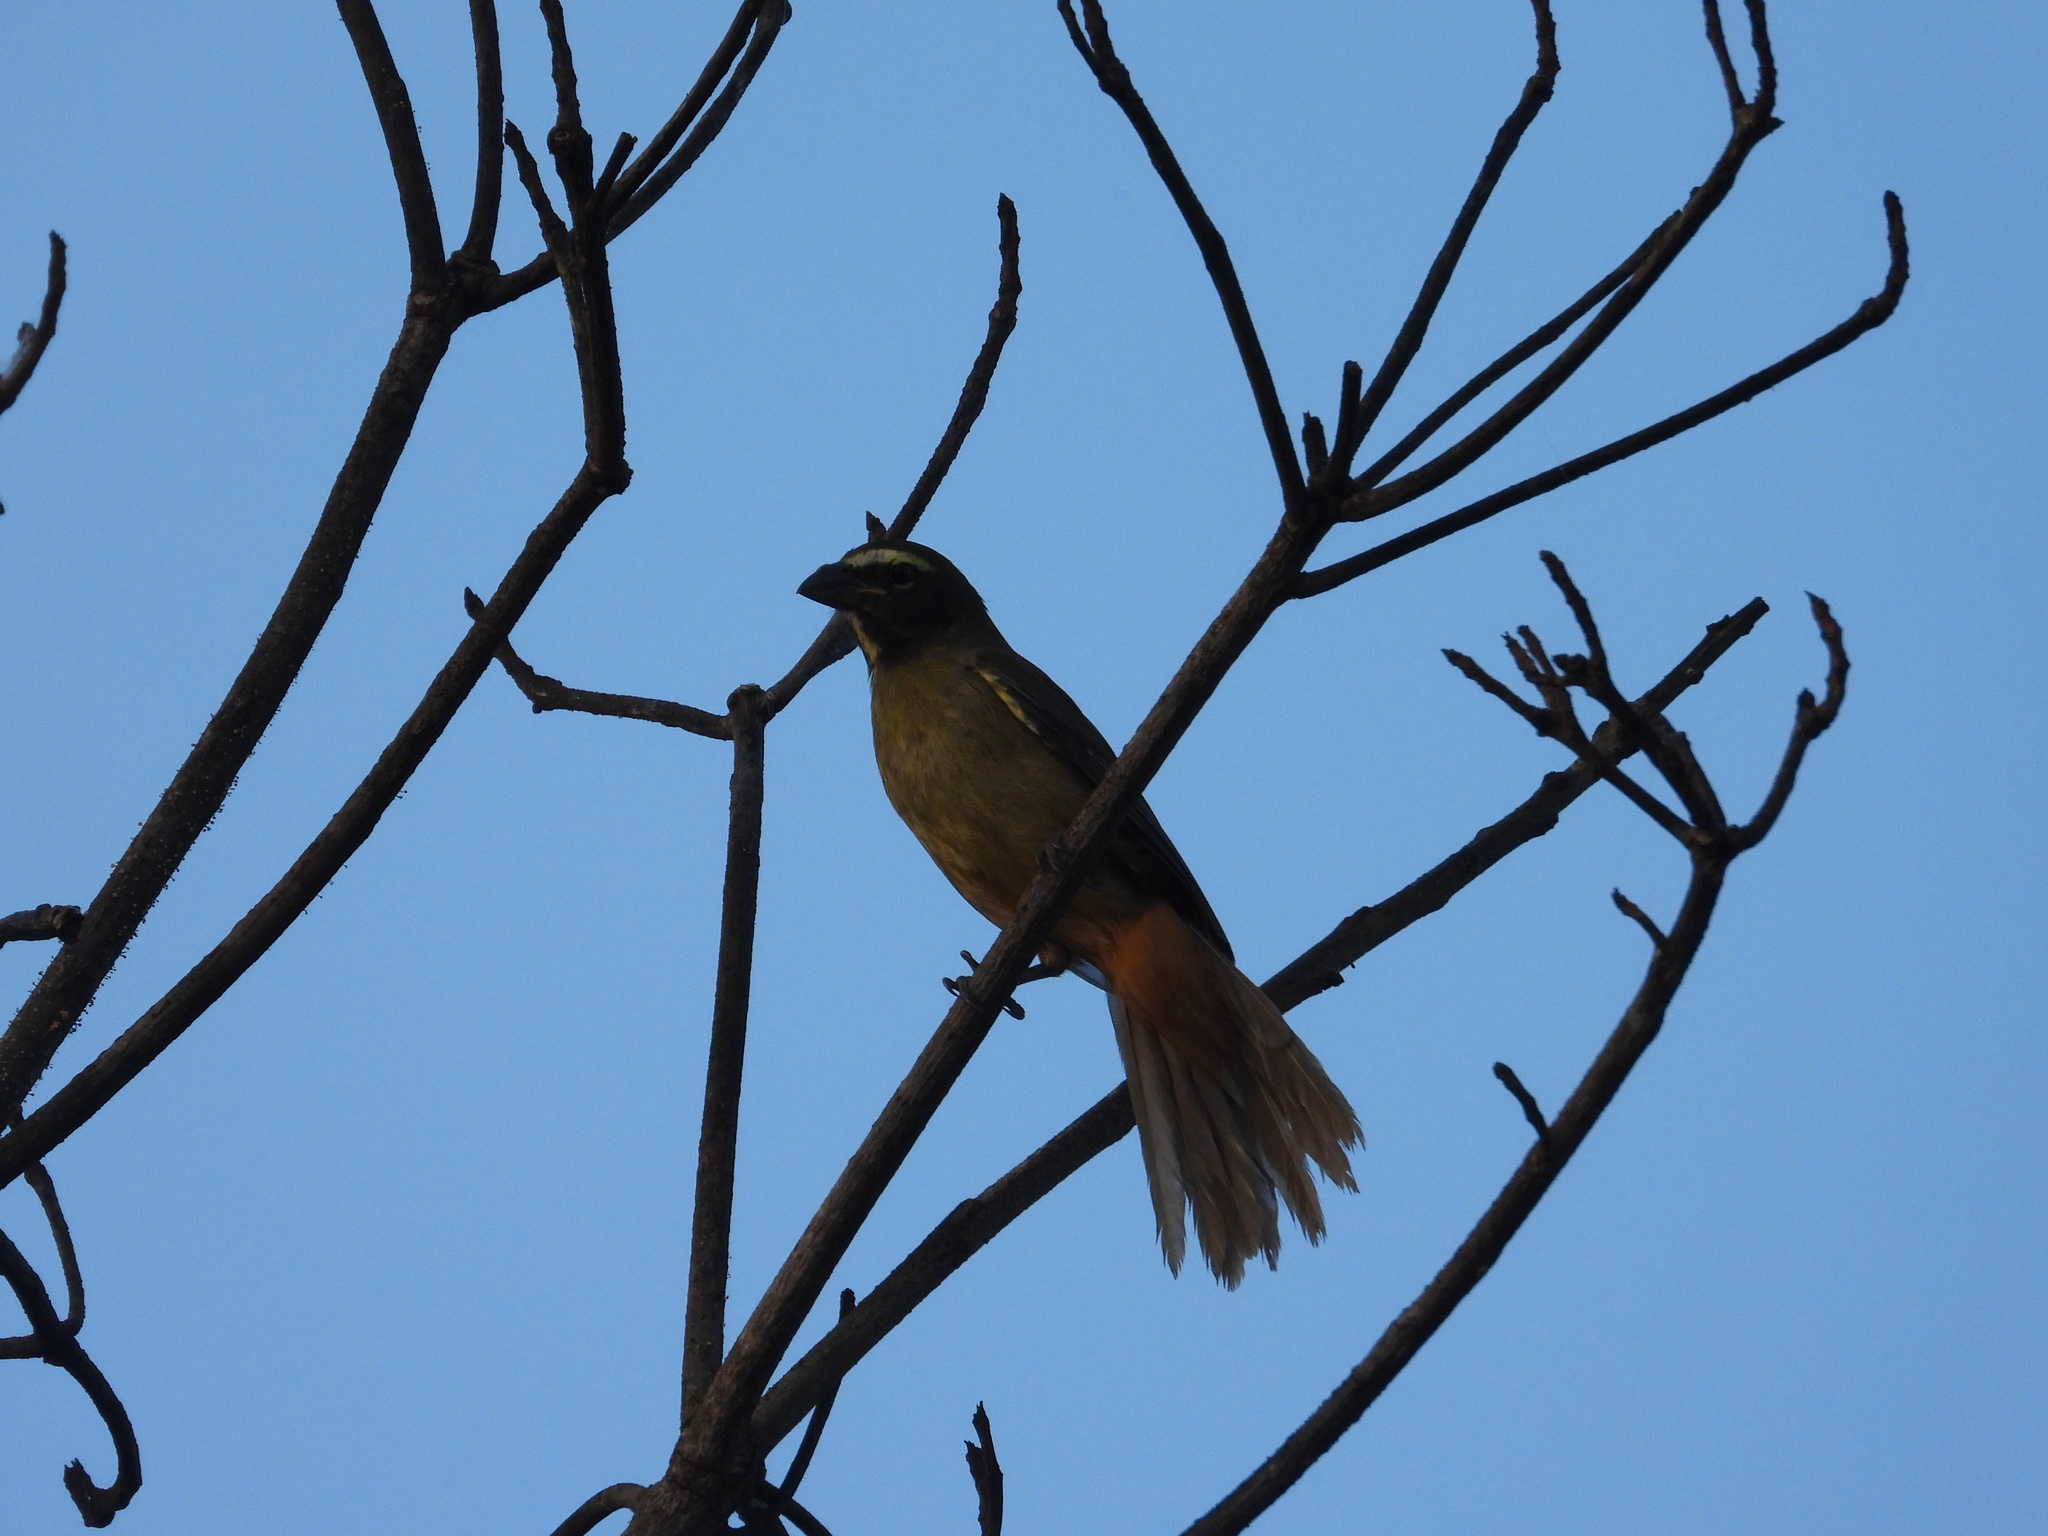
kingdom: Animalia
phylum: Chordata
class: Aves
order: Passeriformes
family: Thraupidae
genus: Saltator
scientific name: Saltator grandis
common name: Cinnamon-bellied saltator
